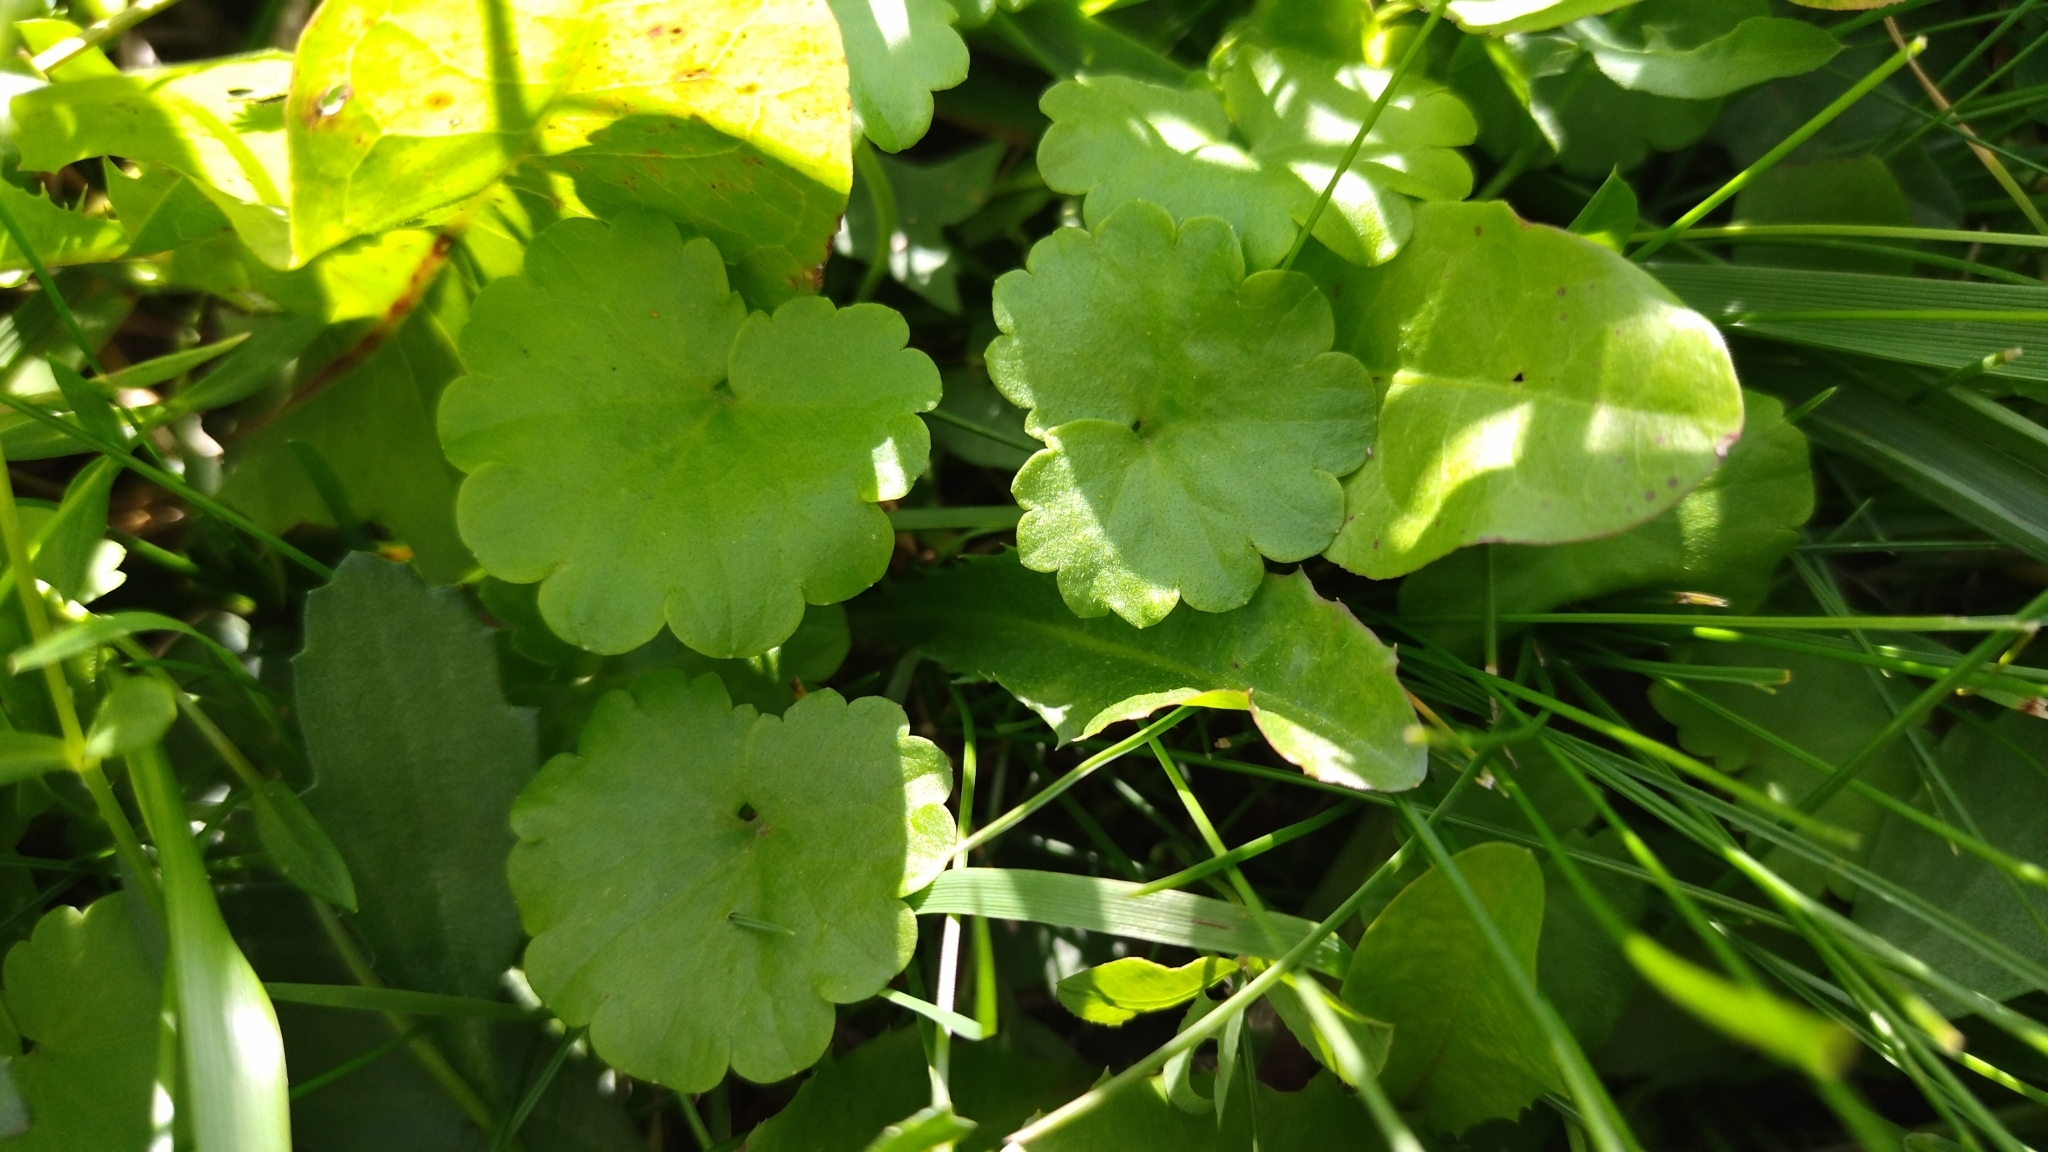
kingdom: Plantae
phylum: Tracheophyta
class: Magnoliopsida
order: Lamiales
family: Lamiaceae
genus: Glechoma
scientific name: Glechoma hederacea
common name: Ground ivy
